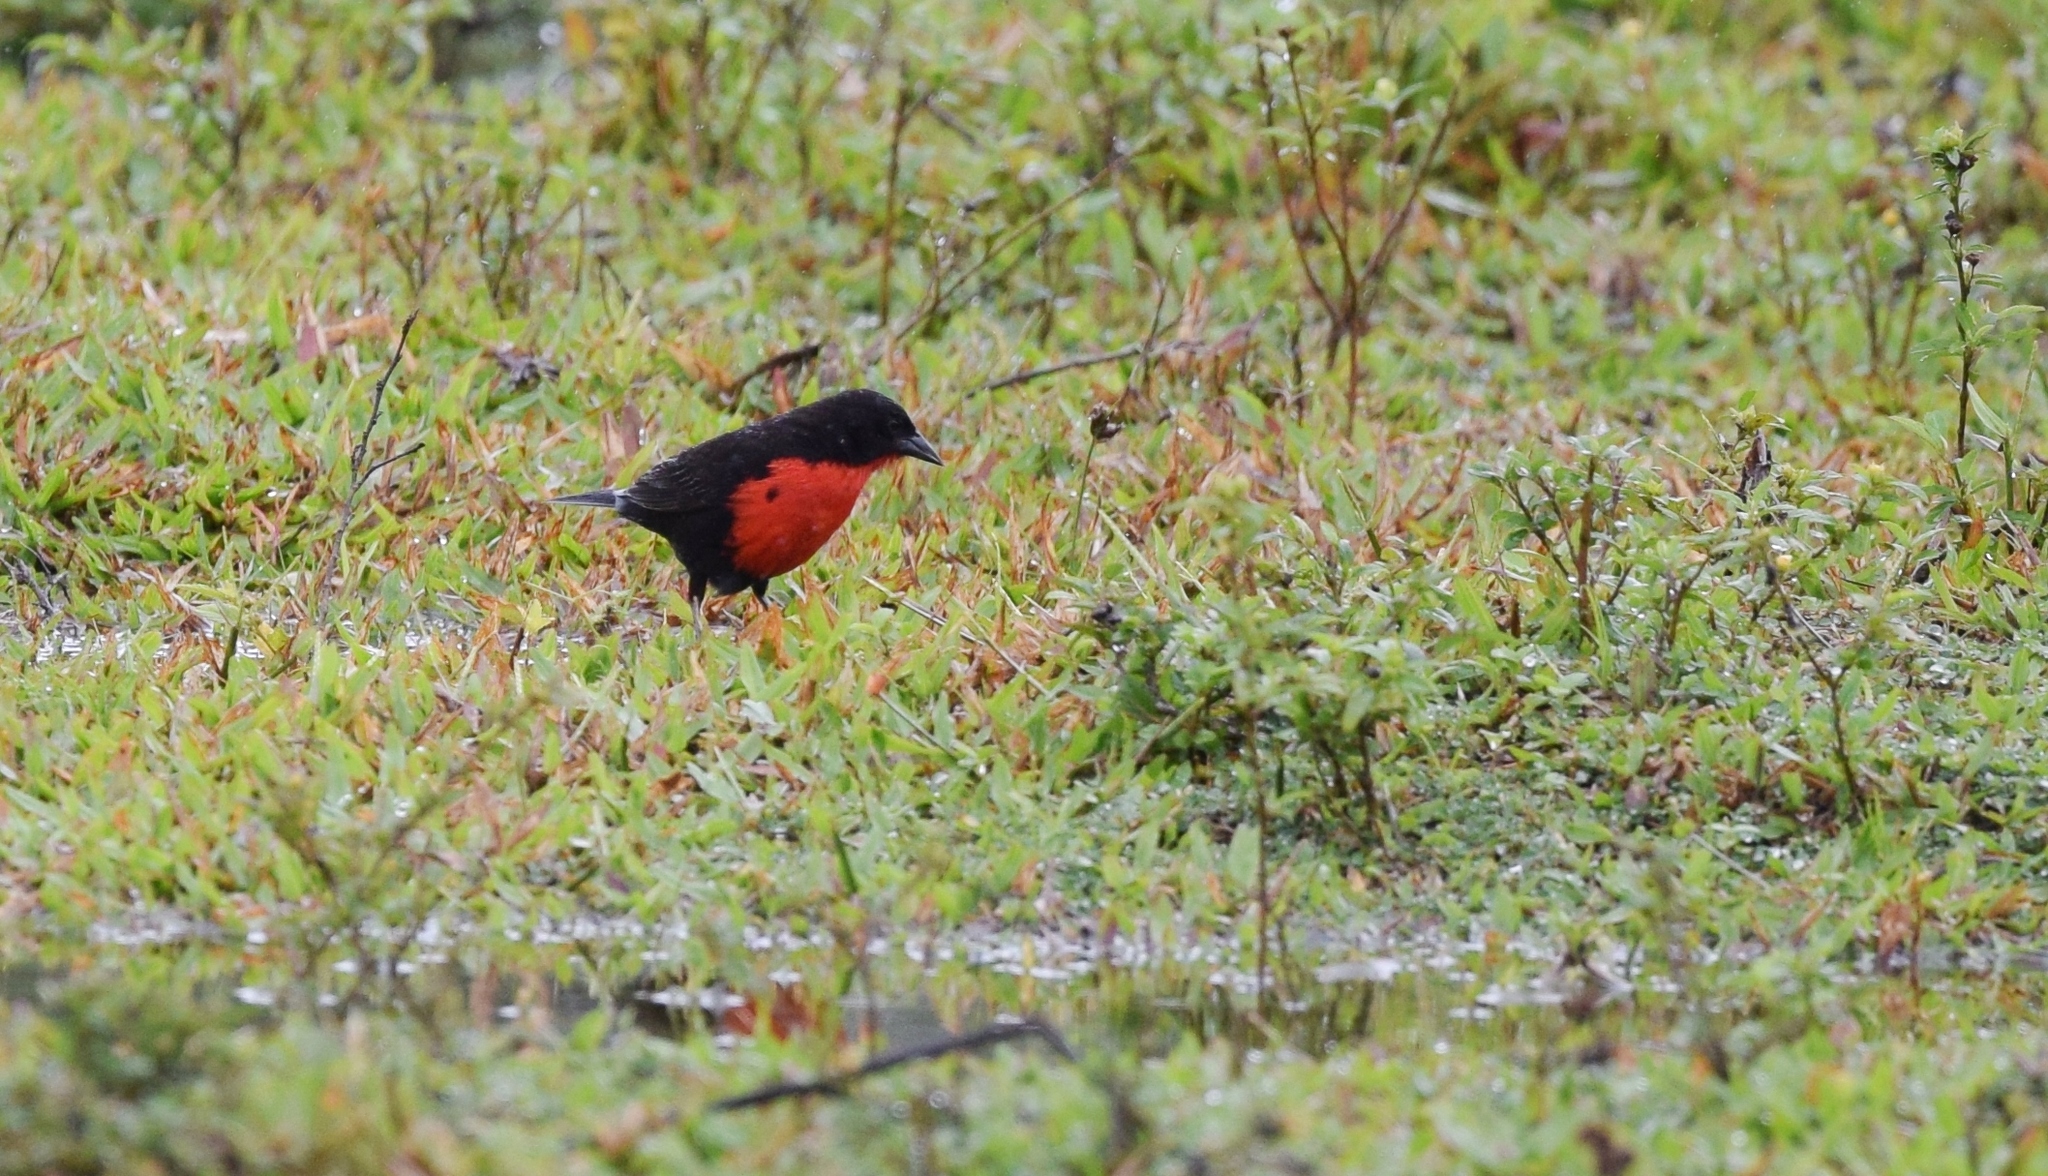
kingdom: Animalia
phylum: Chordata
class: Aves
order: Passeriformes
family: Icteridae
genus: Sturnella
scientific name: Sturnella militaris
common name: Red-breasted blackbird
